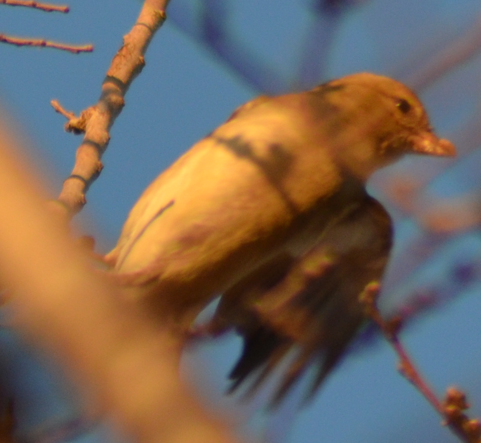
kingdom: Animalia
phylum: Chordata
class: Aves
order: Passeriformes
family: Fringillidae
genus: Fringilla
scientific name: Fringilla coelebs
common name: Common chaffinch
